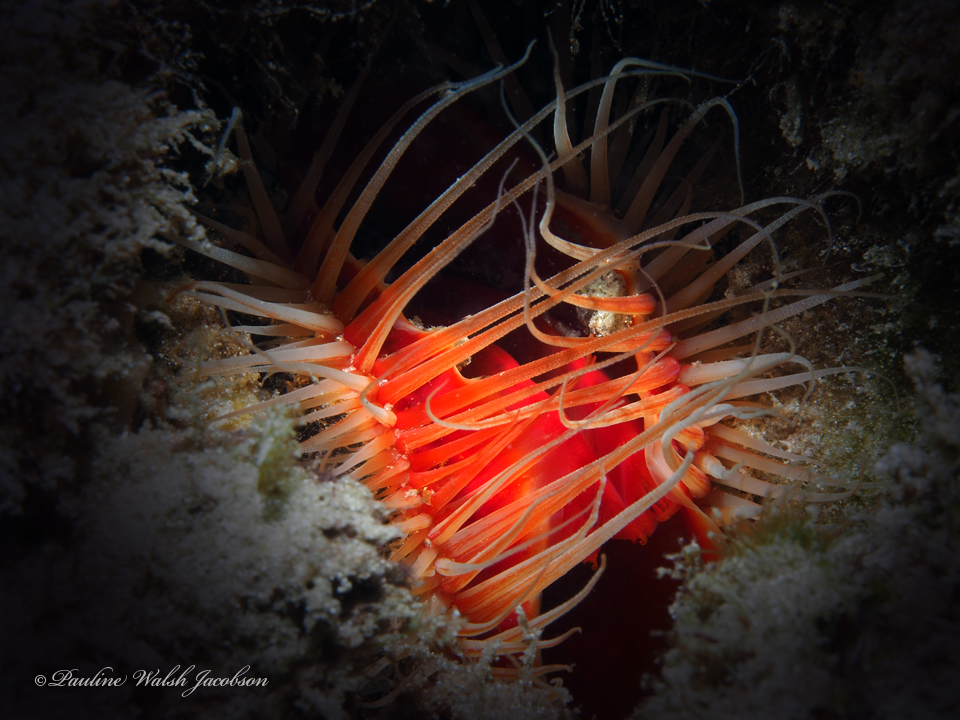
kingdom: Animalia
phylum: Mollusca
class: Bivalvia
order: Limida
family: Limidae
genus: Ctenoides
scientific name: Ctenoides scaber
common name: Rough fileclam
